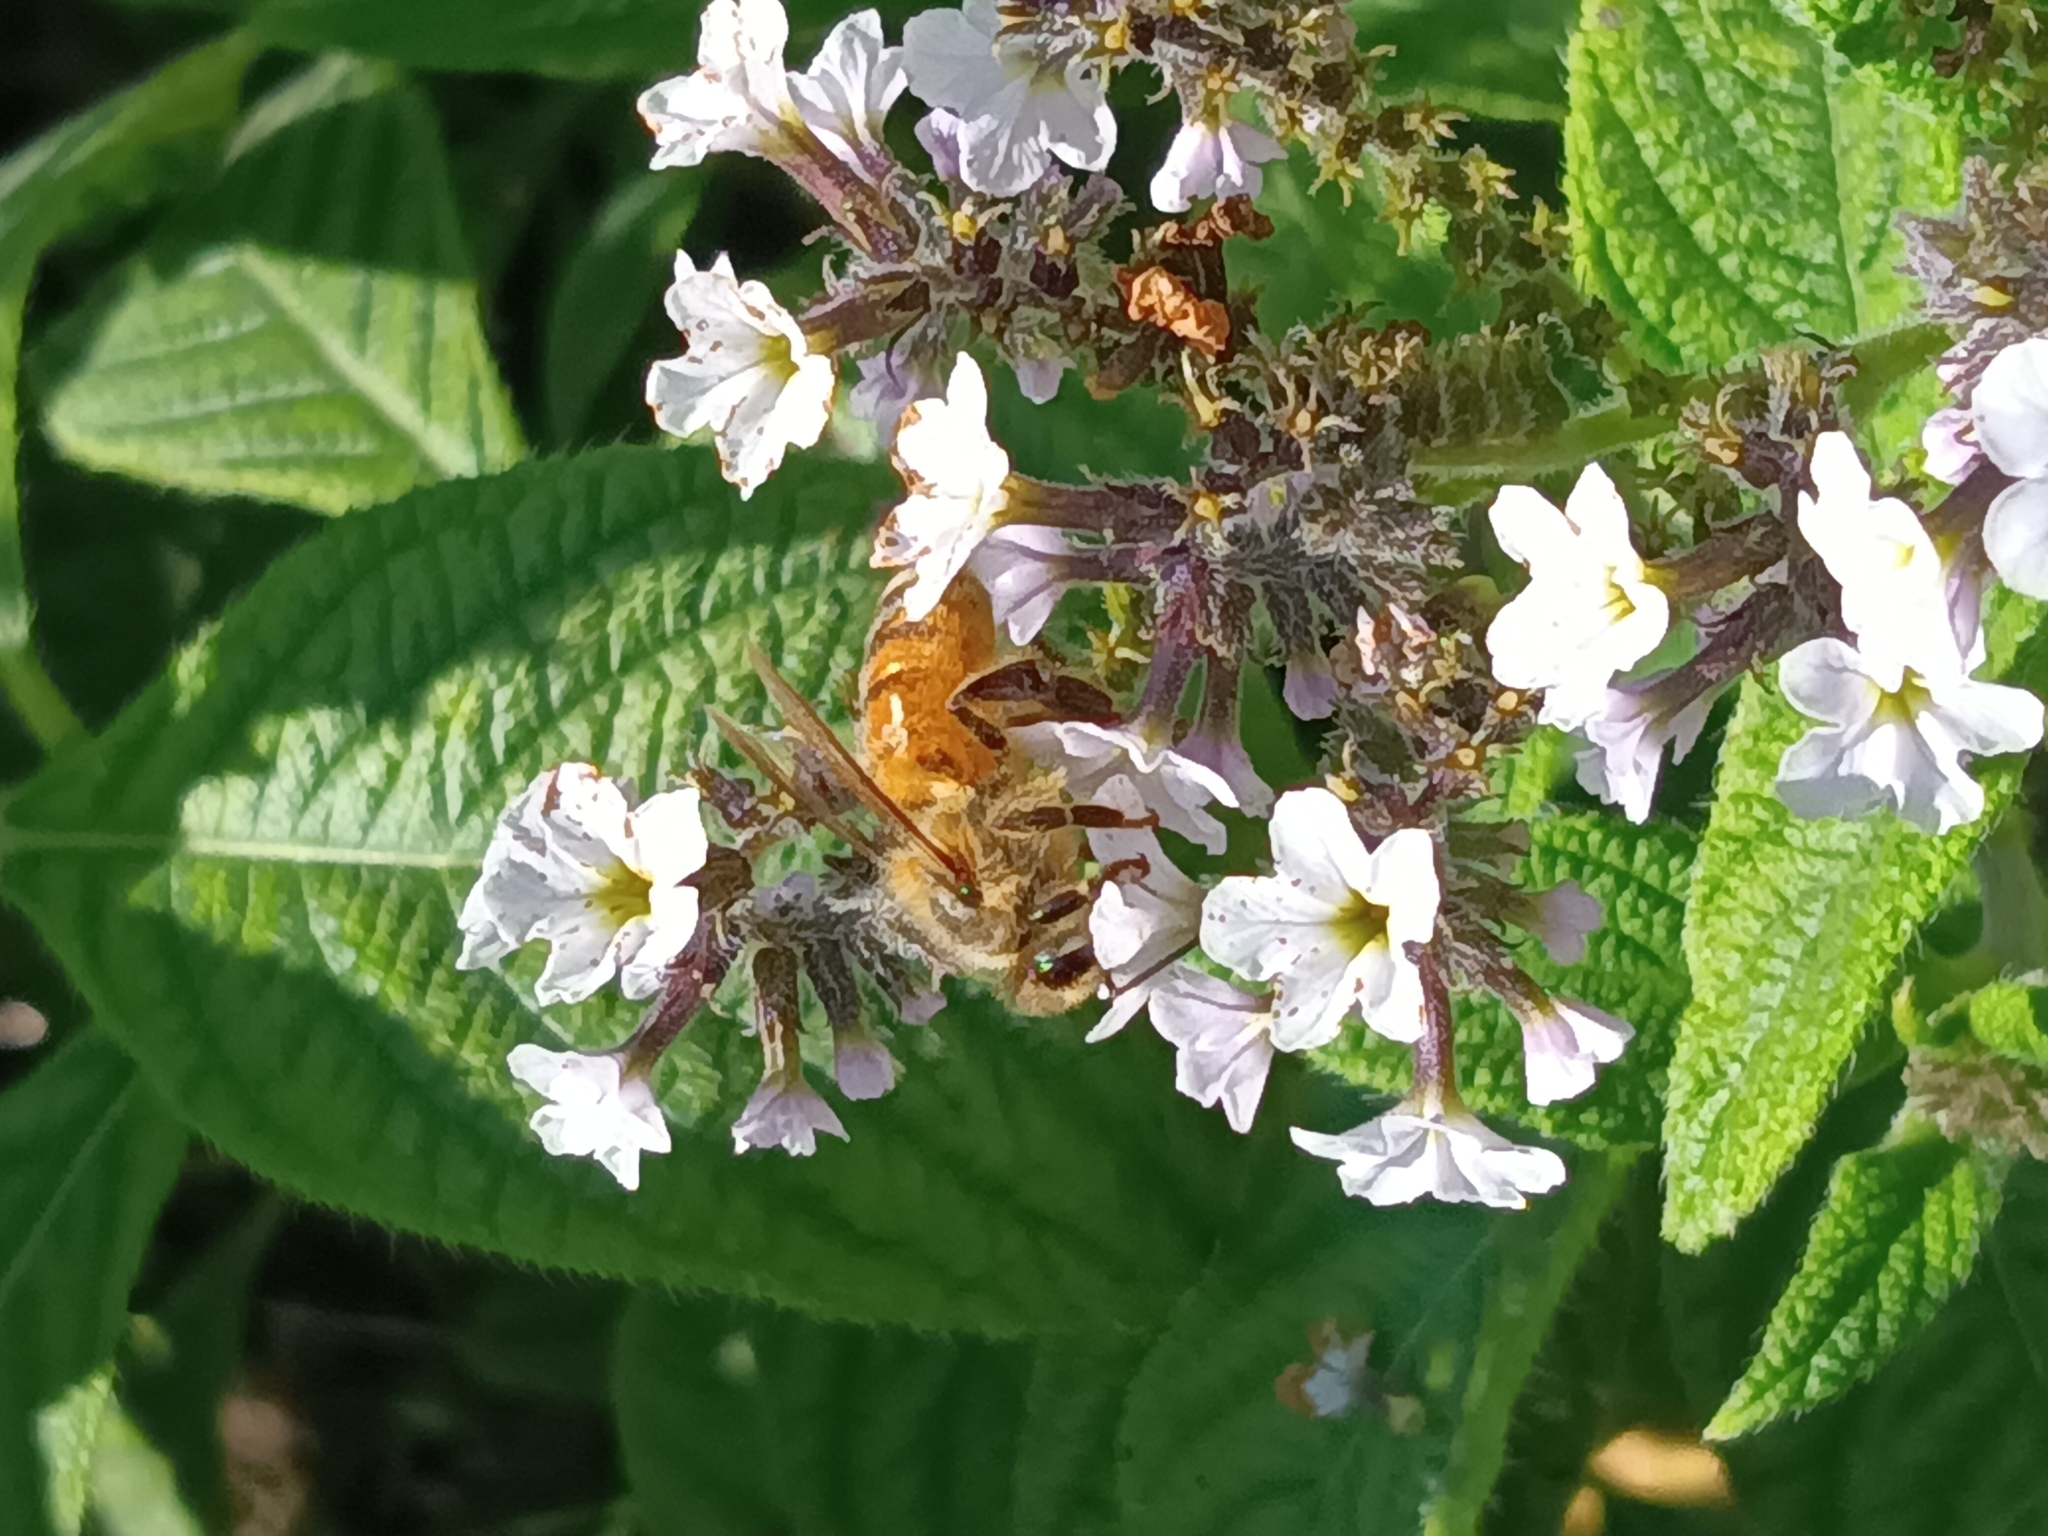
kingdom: Animalia
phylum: Arthropoda
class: Insecta
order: Hymenoptera
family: Apidae
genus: Apis
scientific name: Apis mellifera
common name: Honey bee
